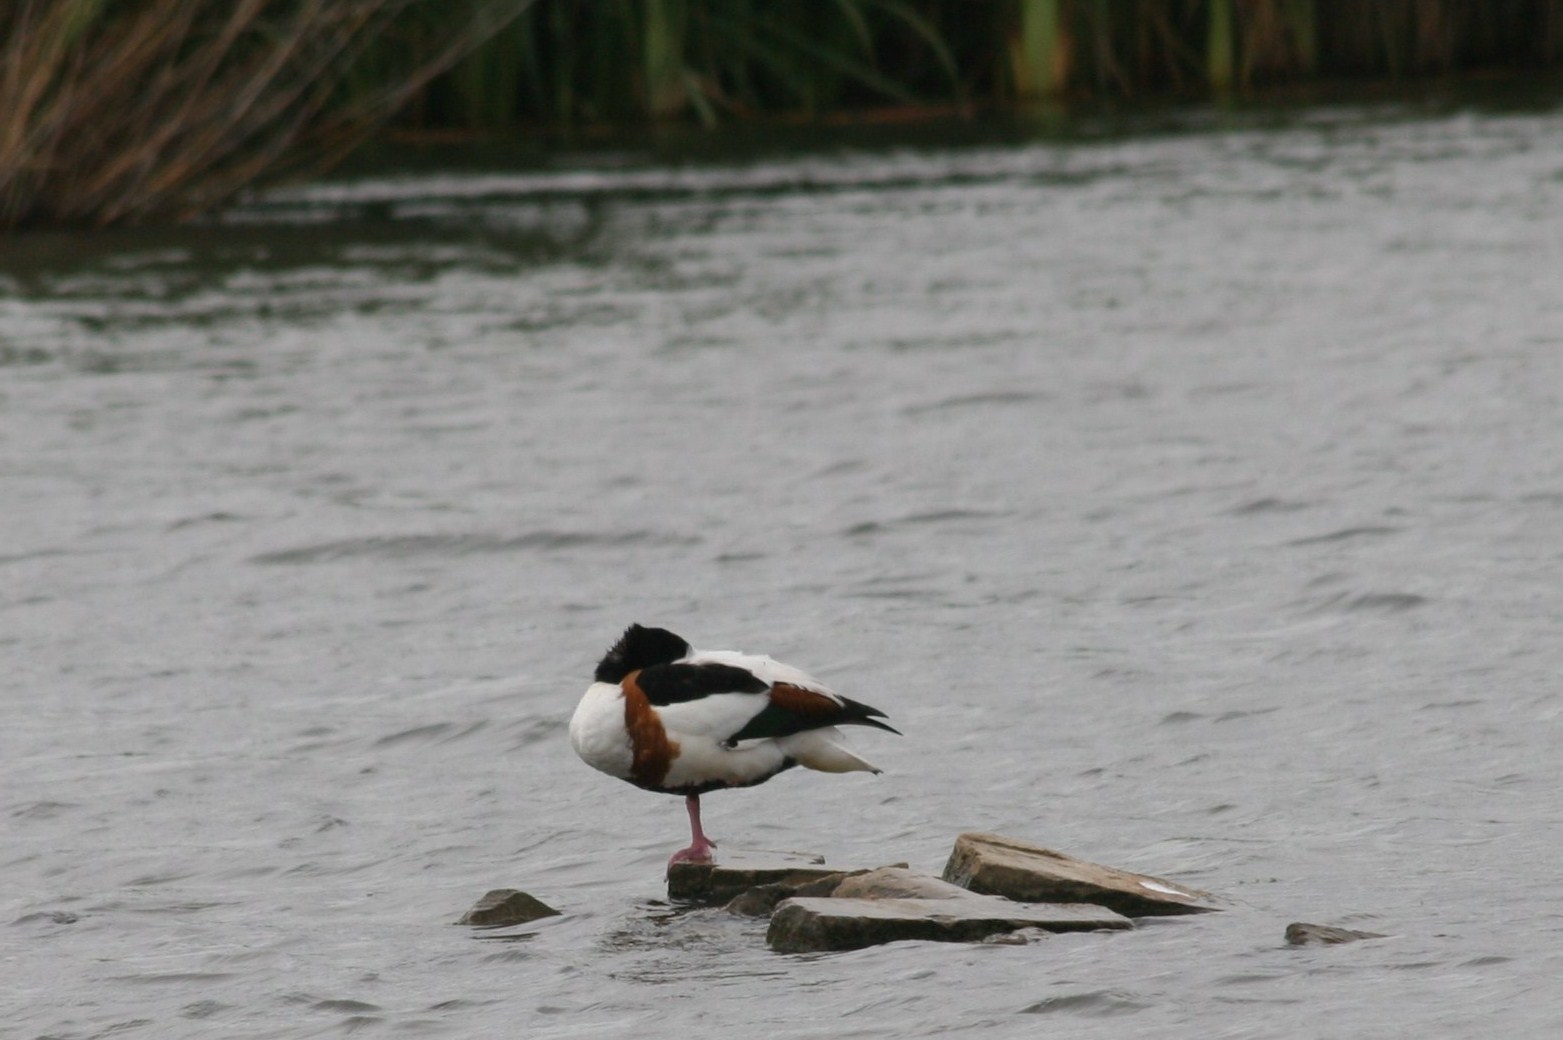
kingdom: Animalia
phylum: Chordata
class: Aves
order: Anseriformes
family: Anatidae
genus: Tadorna
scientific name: Tadorna tadorna
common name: Common shelduck
